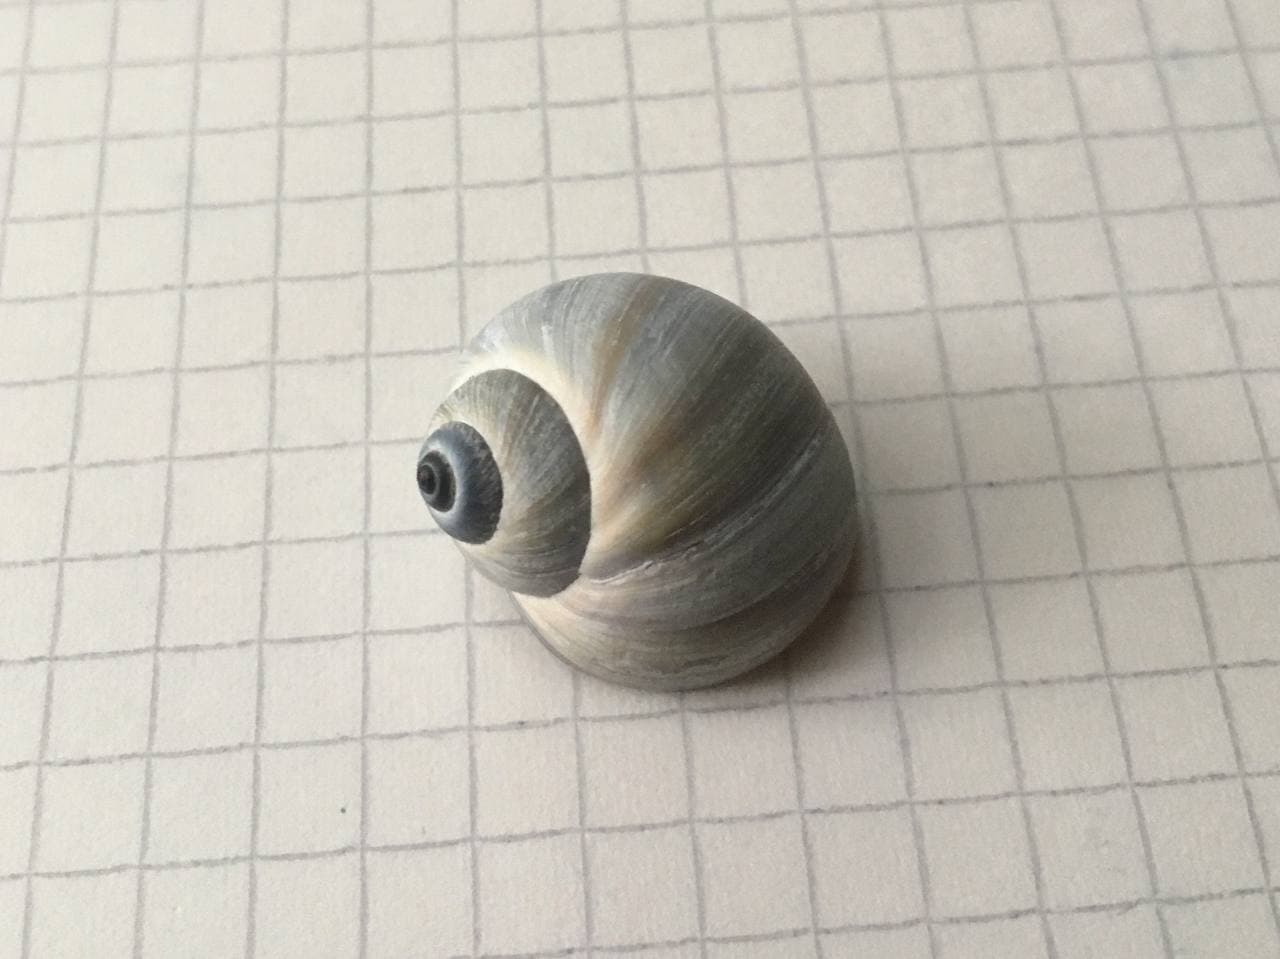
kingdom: Animalia
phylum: Mollusca
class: Gastropoda
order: Littorinimorpha
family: Naticidae
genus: Natica
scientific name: Natica limbata
